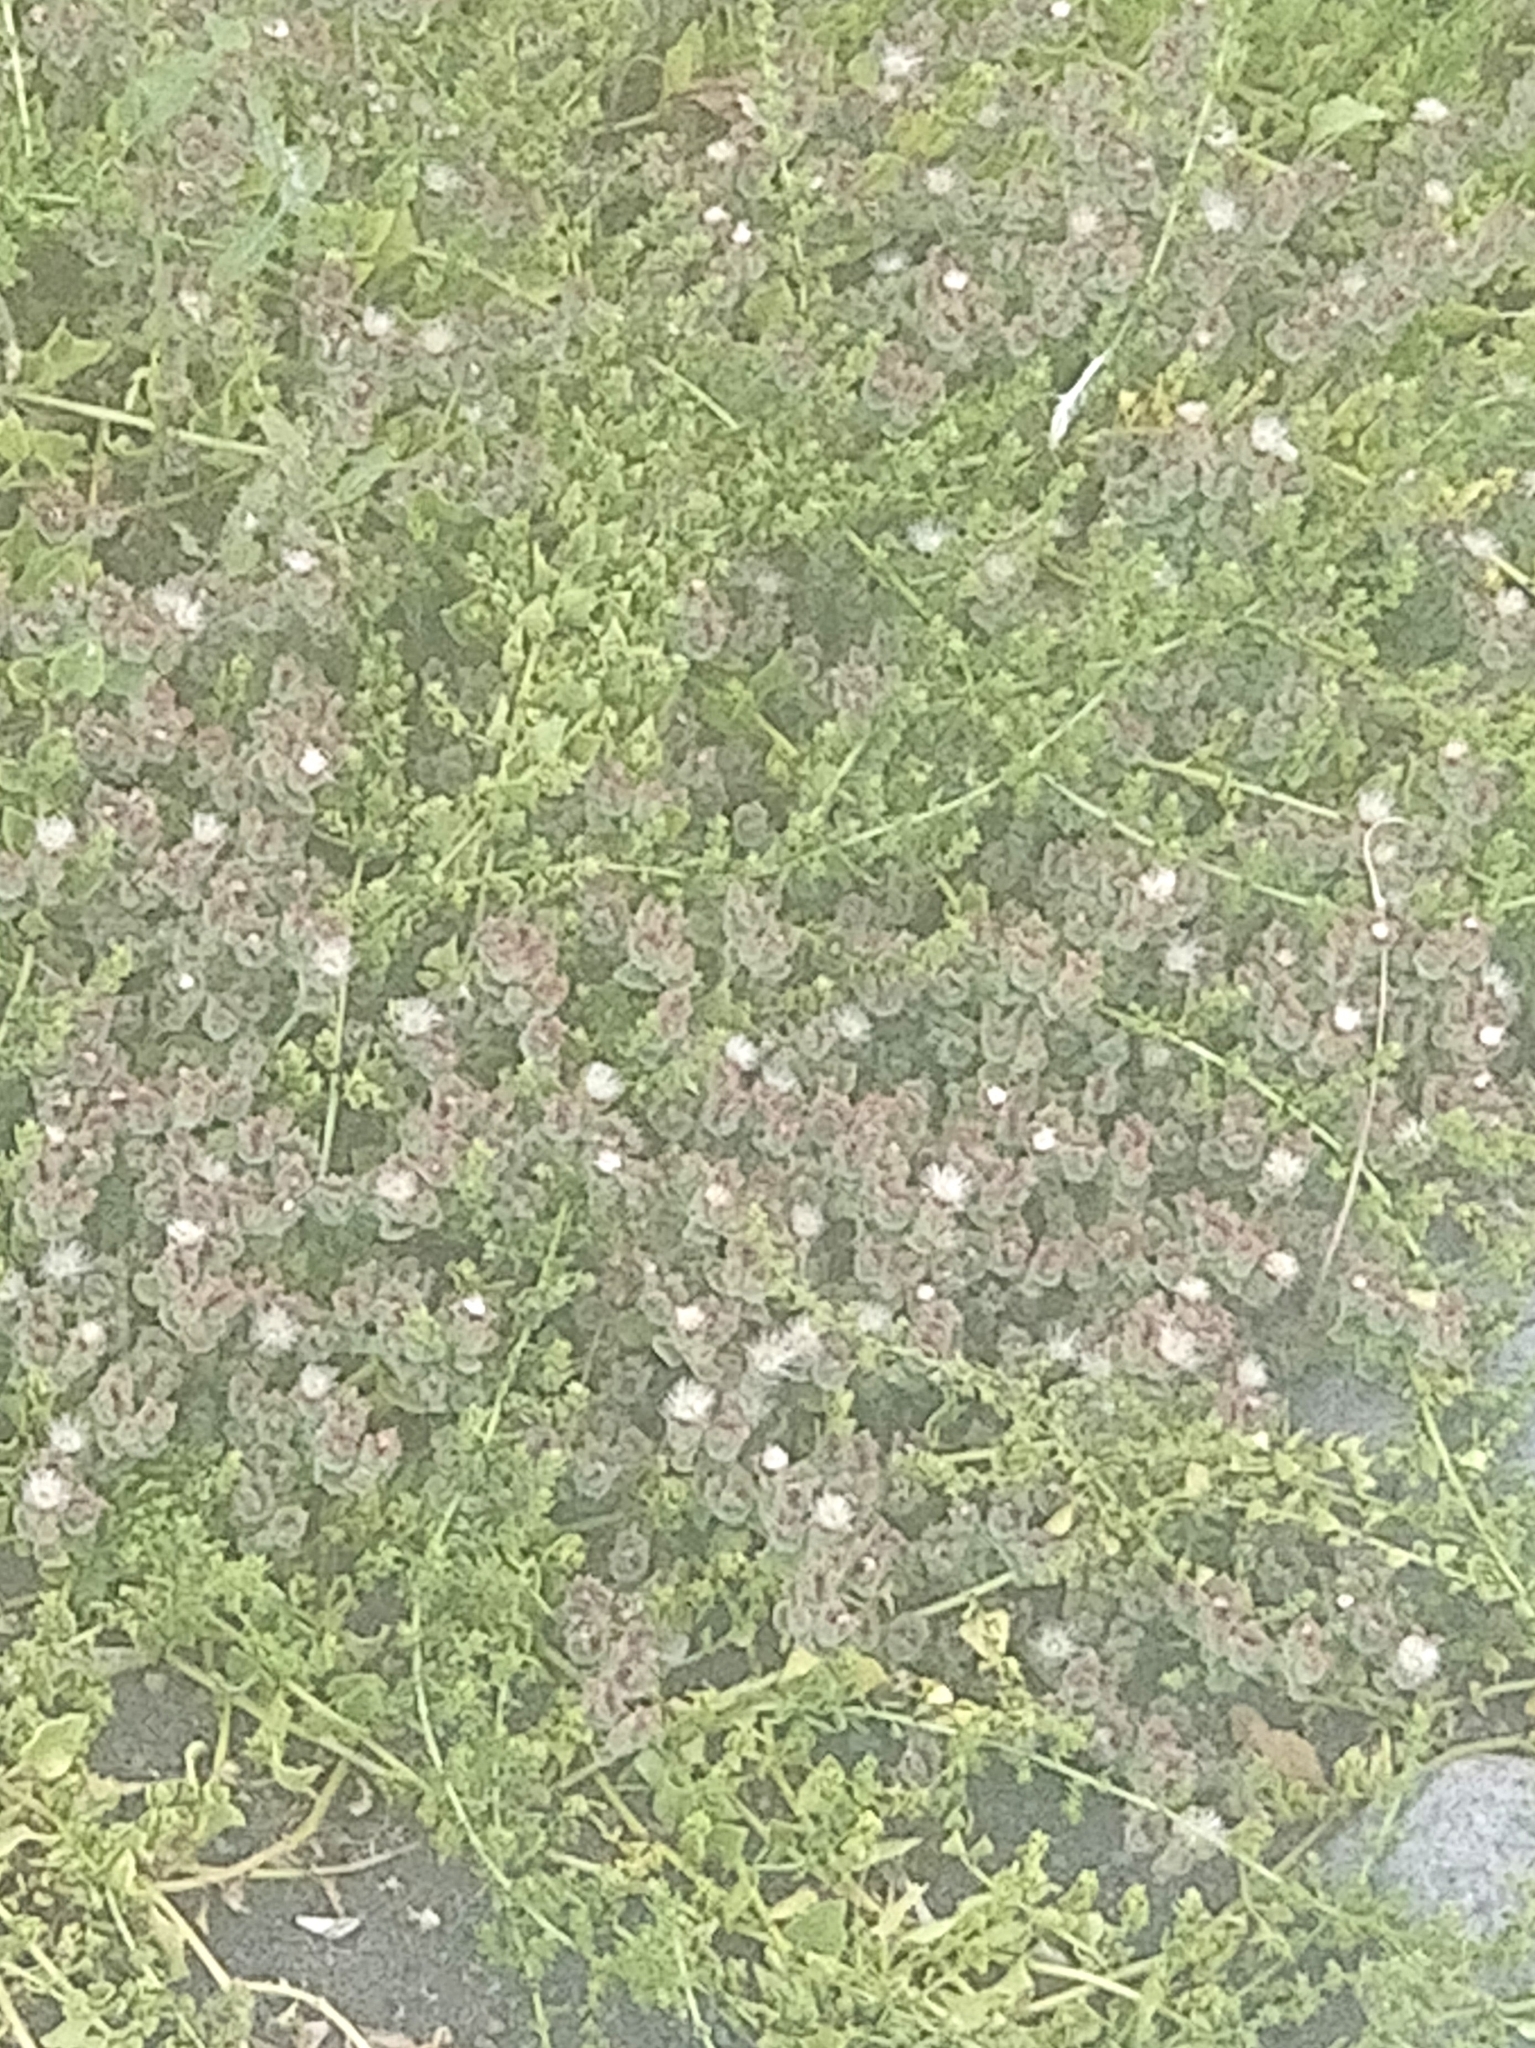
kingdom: Plantae
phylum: Tracheophyta
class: Magnoliopsida
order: Caryophyllales
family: Aizoaceae
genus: Mesembryanthemum
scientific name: Mesembryanthemum crystallinum
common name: Common iceplant
